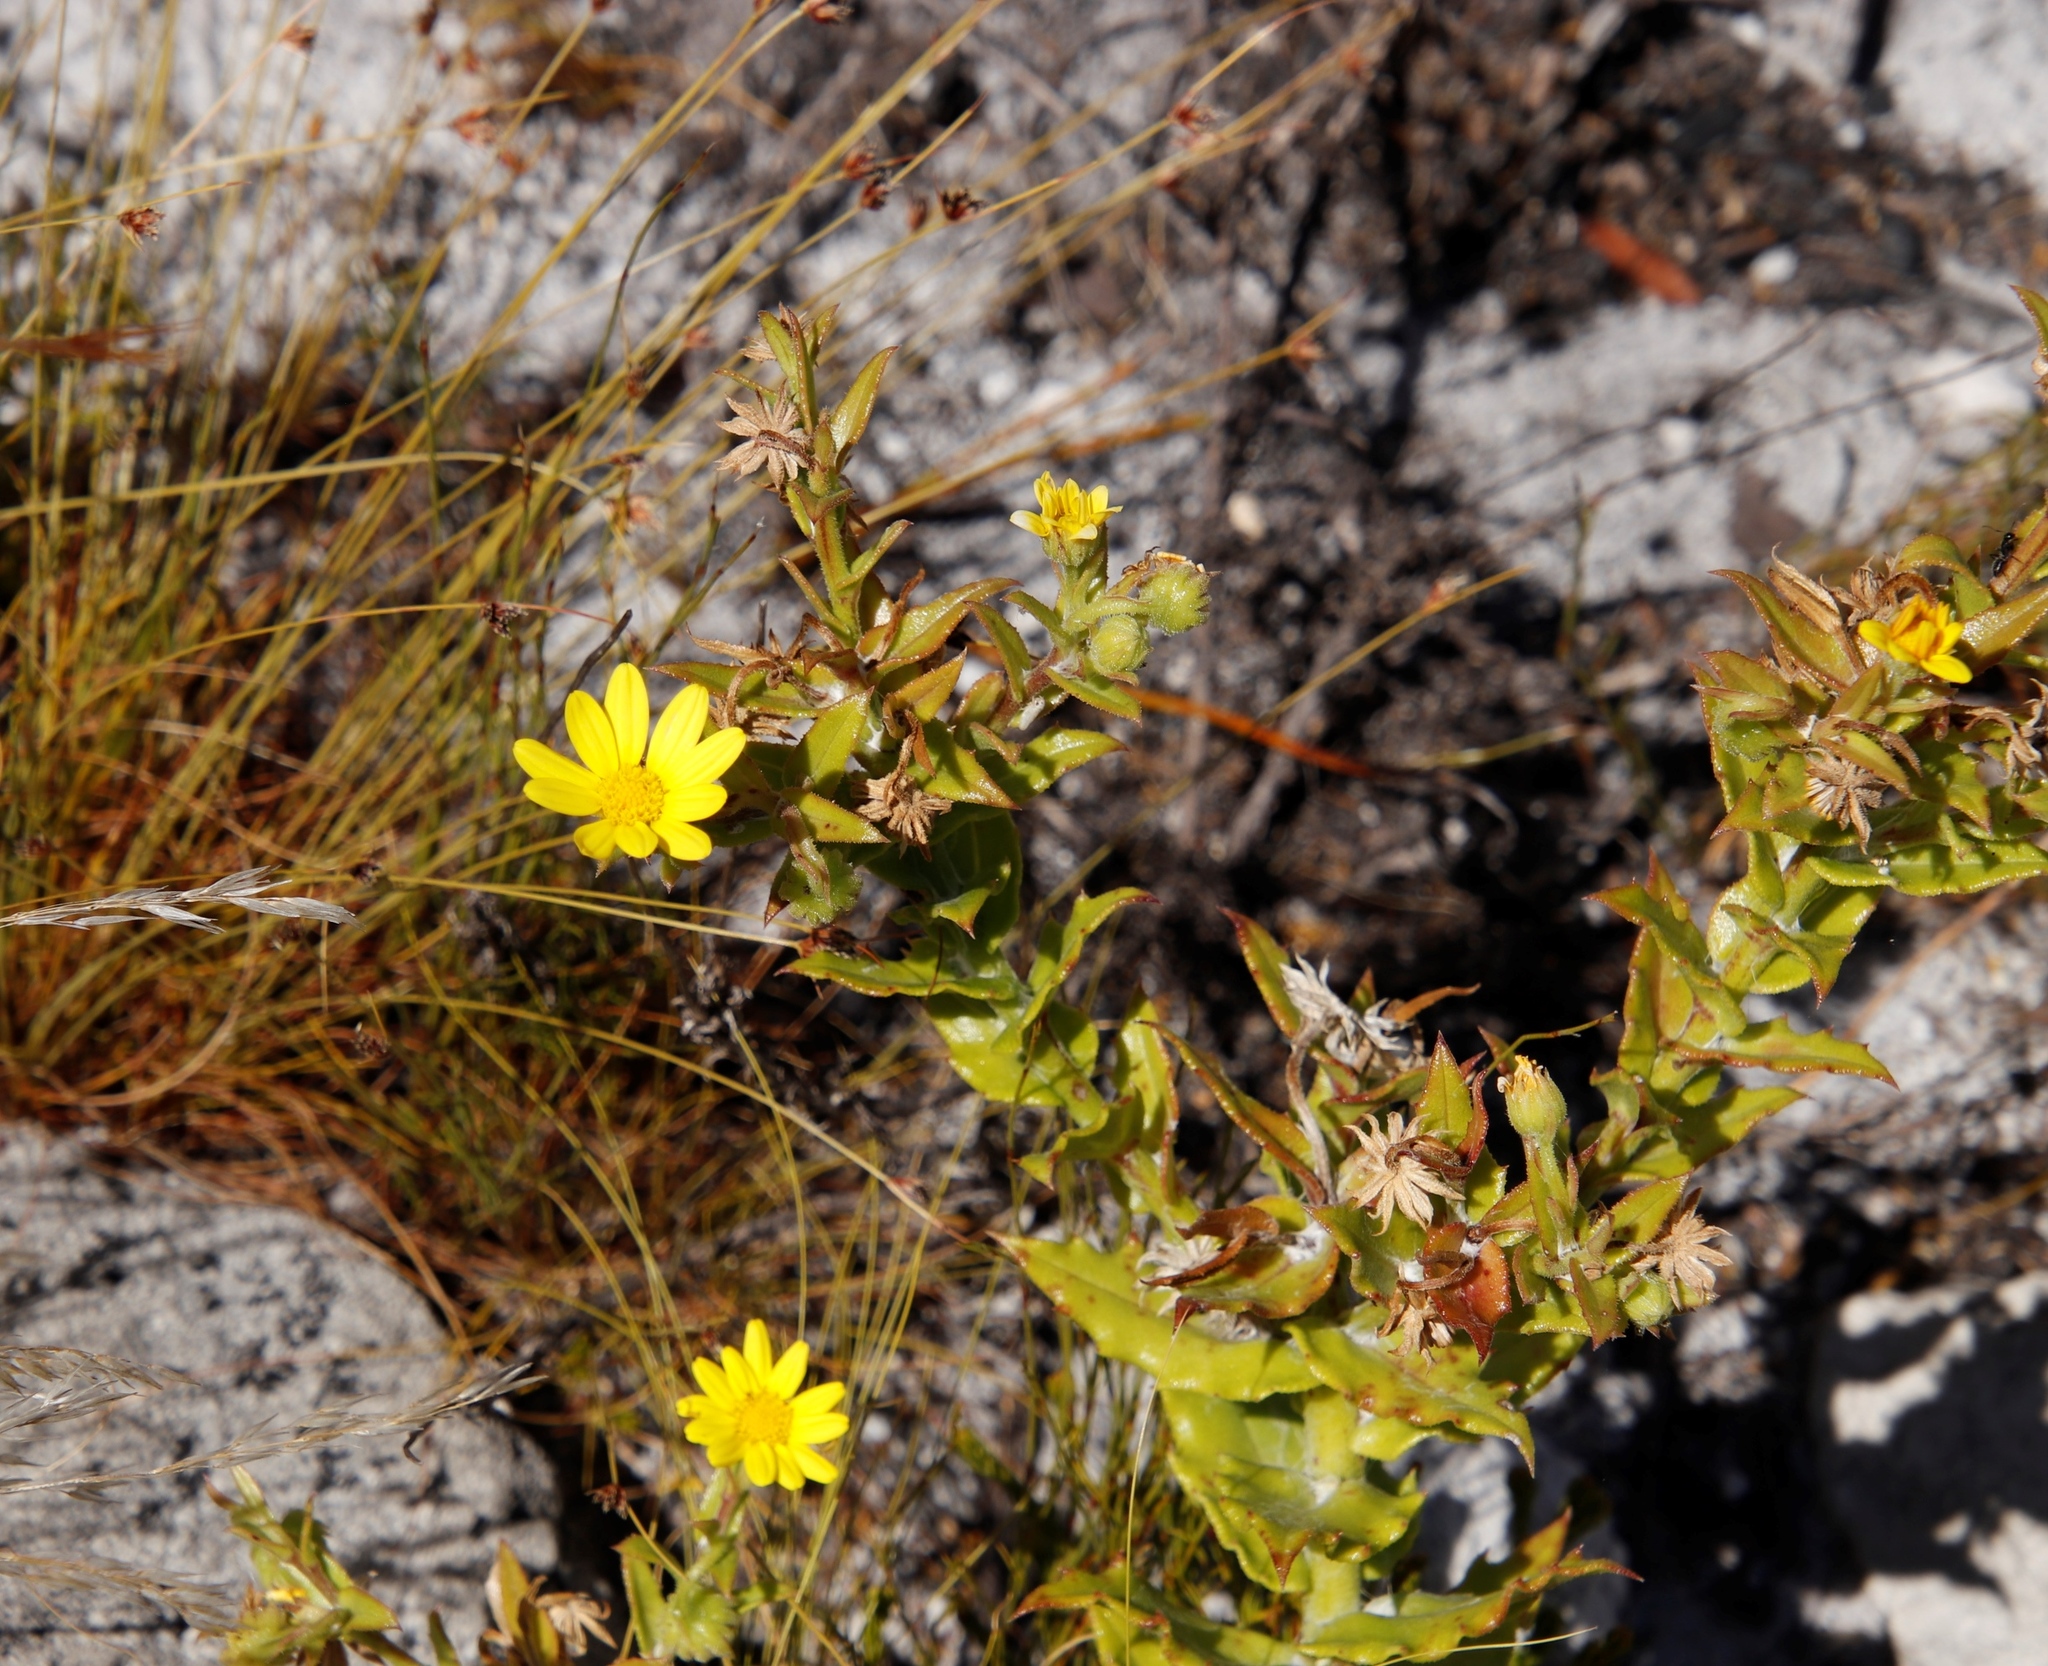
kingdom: Plantae
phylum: Tracheophyta
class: Magnoliopsida
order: Asterales
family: Asteraceae
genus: Osteospermum
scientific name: Osteospermum ilicifolium
